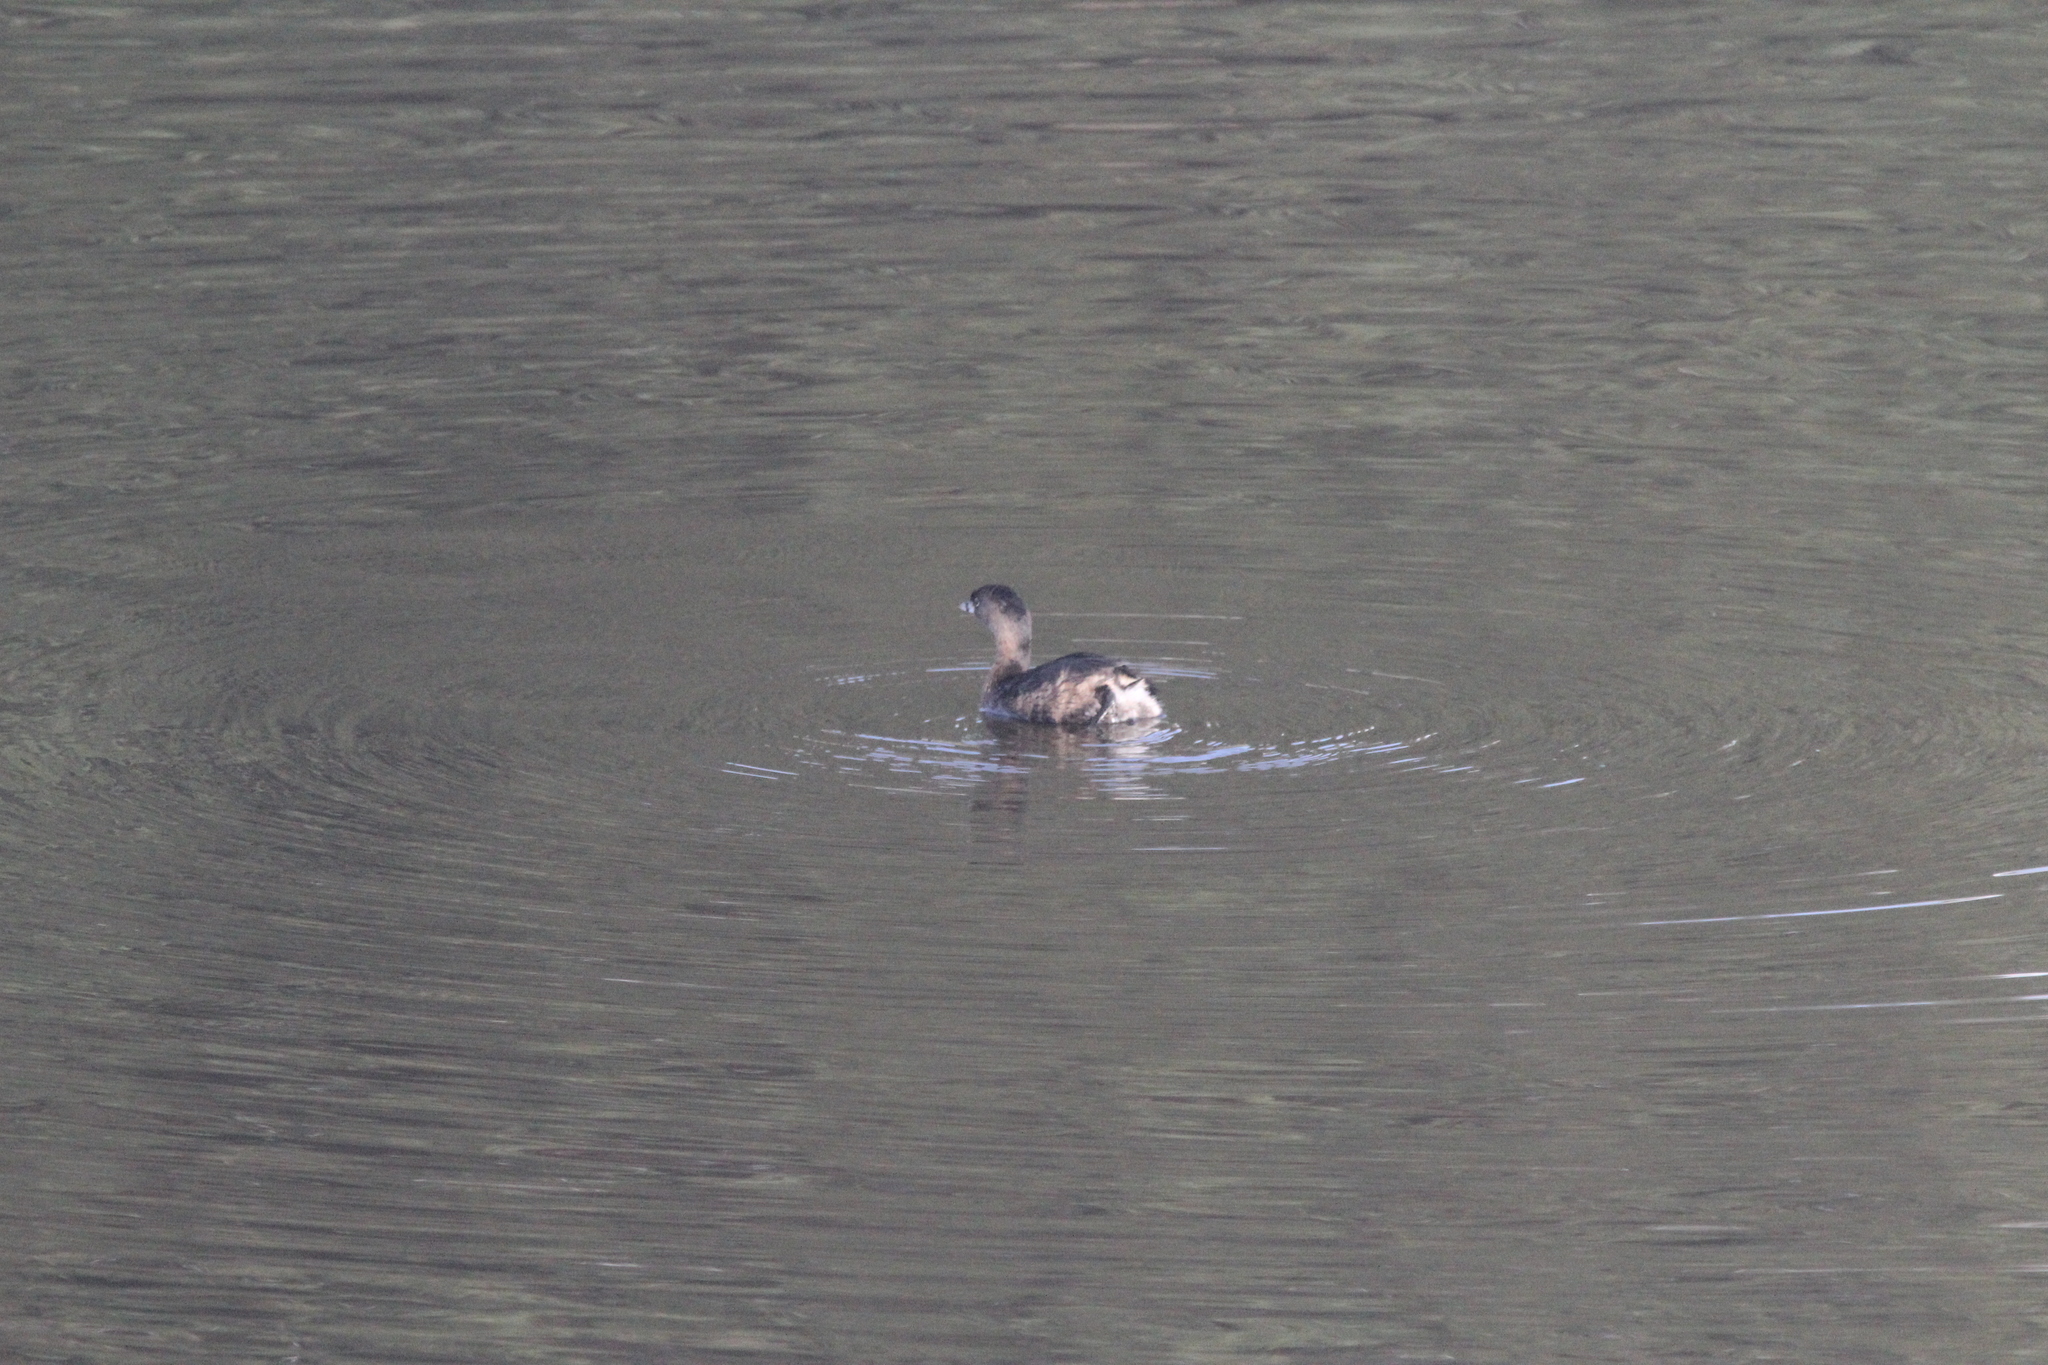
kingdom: Animalia
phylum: Chordata
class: Aves
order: Podicipediformes
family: Podicipedidae
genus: Podilymbus
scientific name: Podilymbus podiceps
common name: Pied-billed grebe
